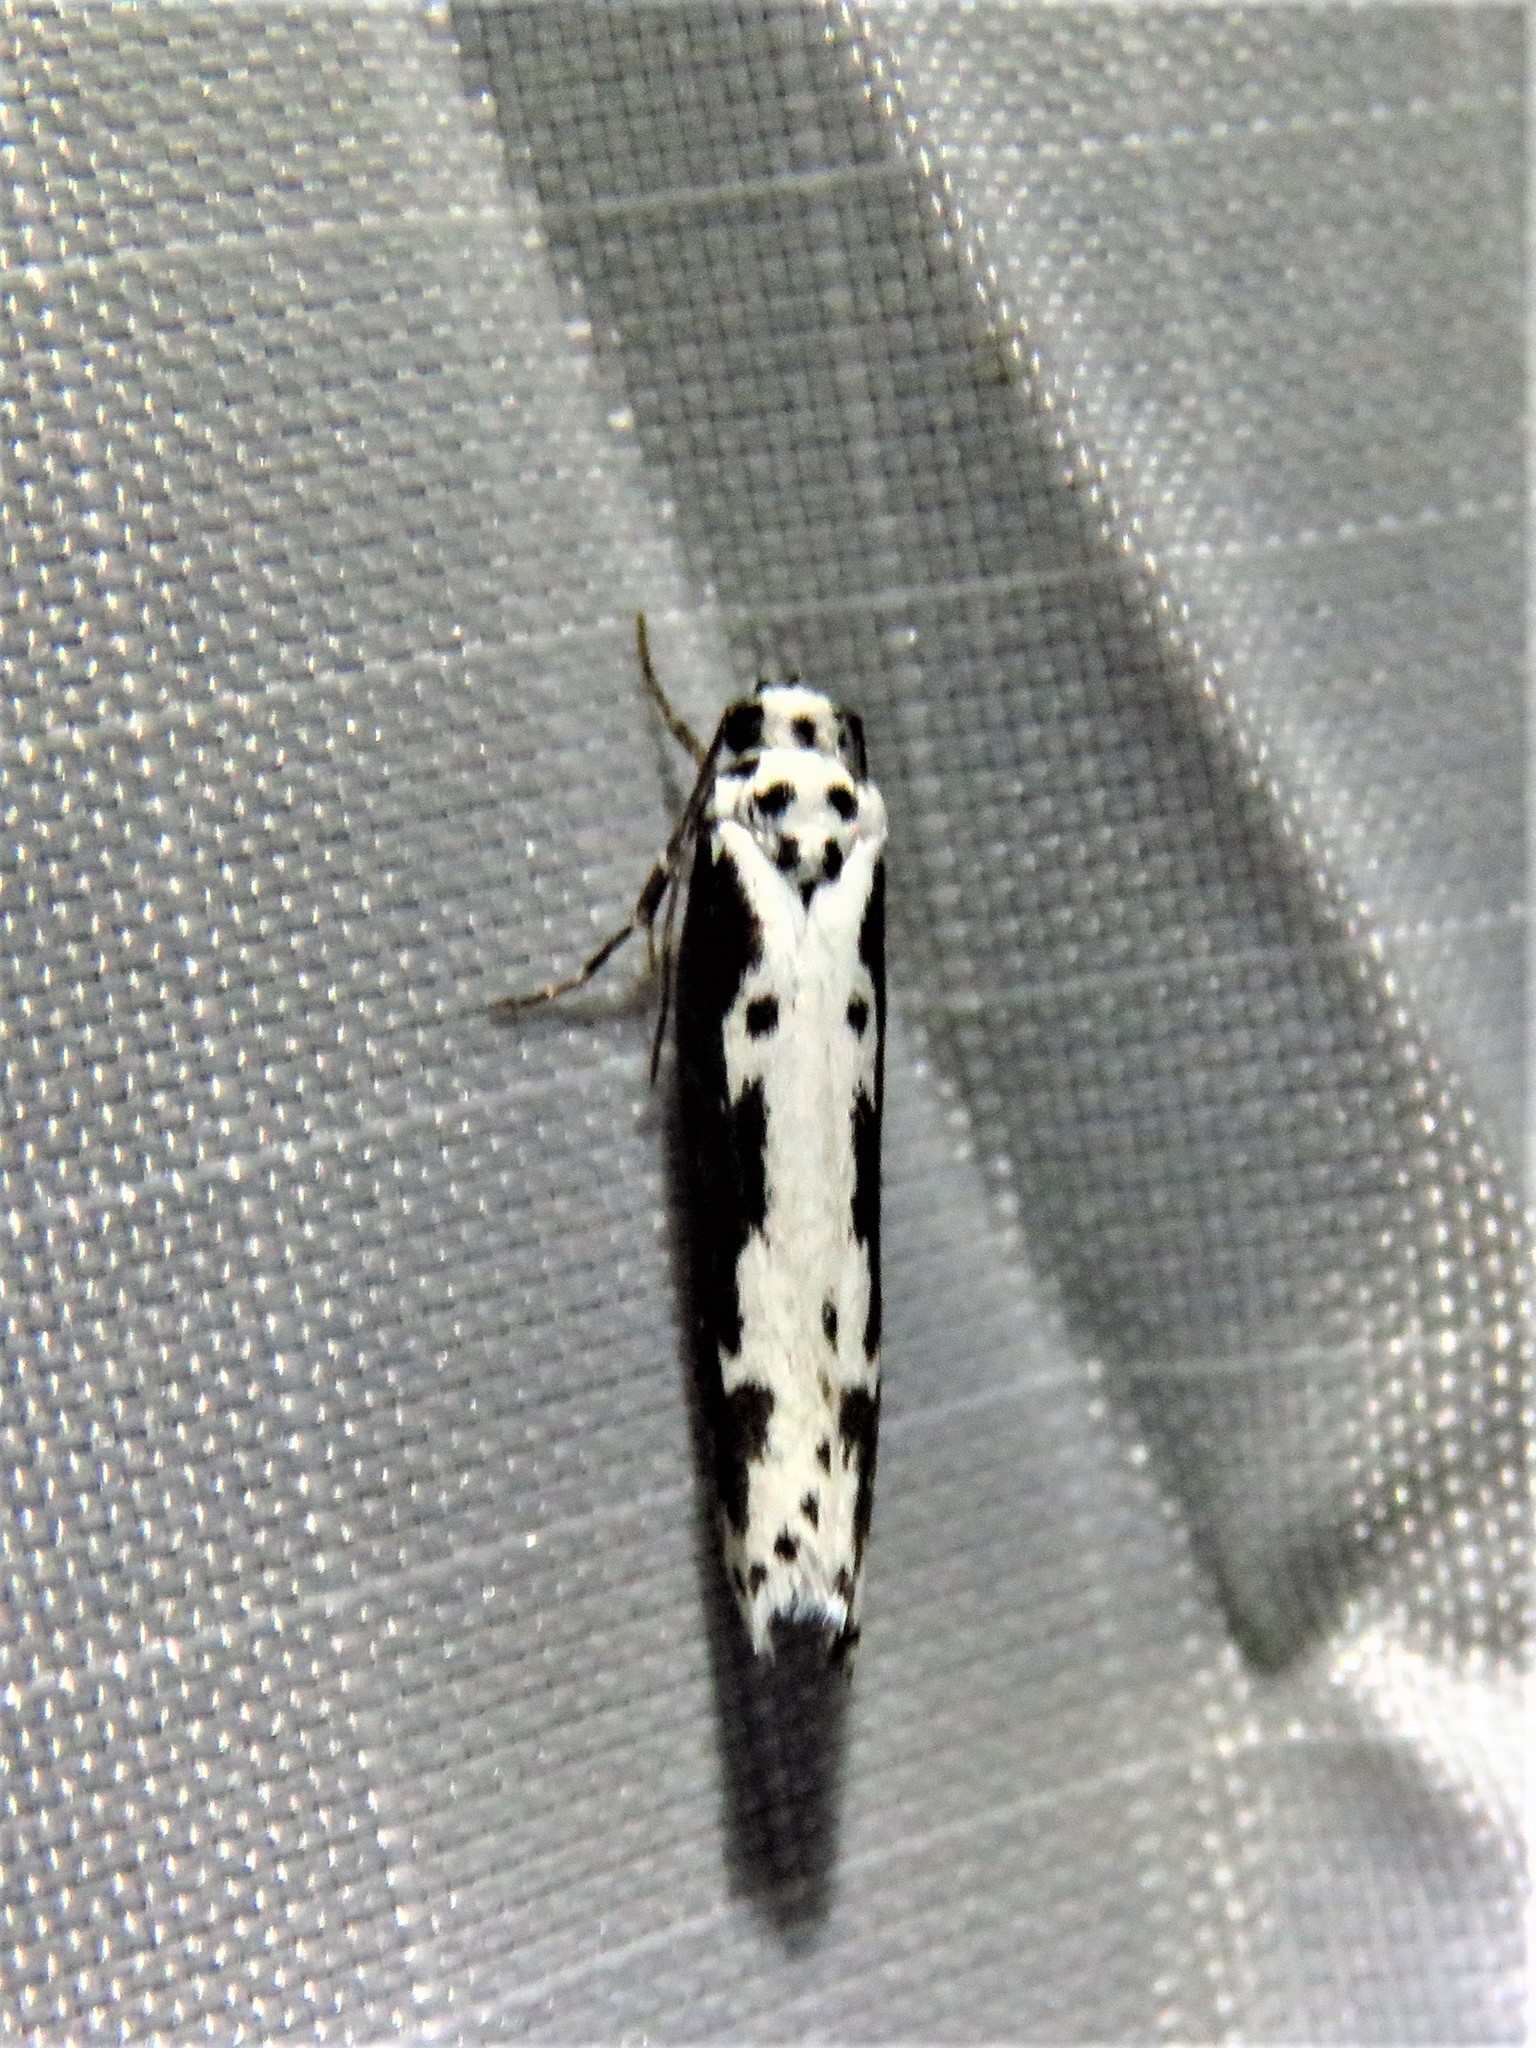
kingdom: Animalia
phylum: Arthropoda
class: Insecta
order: Lepidoptera
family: Ethmiidae
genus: Ethmia
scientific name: Ethmia semilugens
